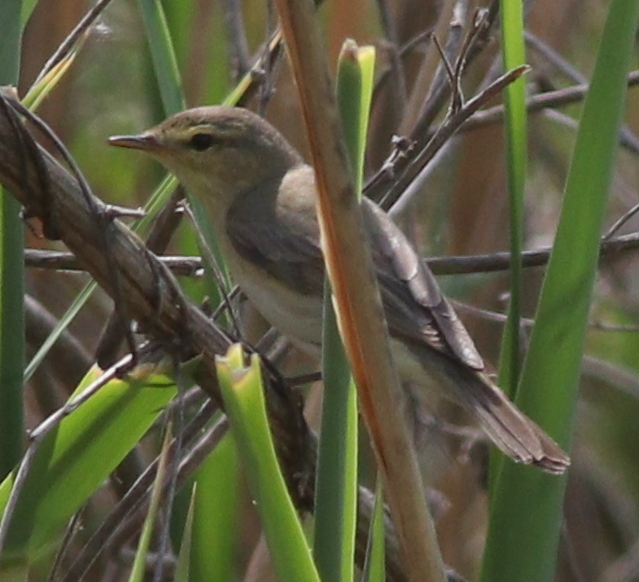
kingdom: Animalia
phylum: Chordata
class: Aves
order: Passeriformes
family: Phylloscopidae
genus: Phylloscopus
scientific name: Phylloscopus trochilus
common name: Willow warbler
